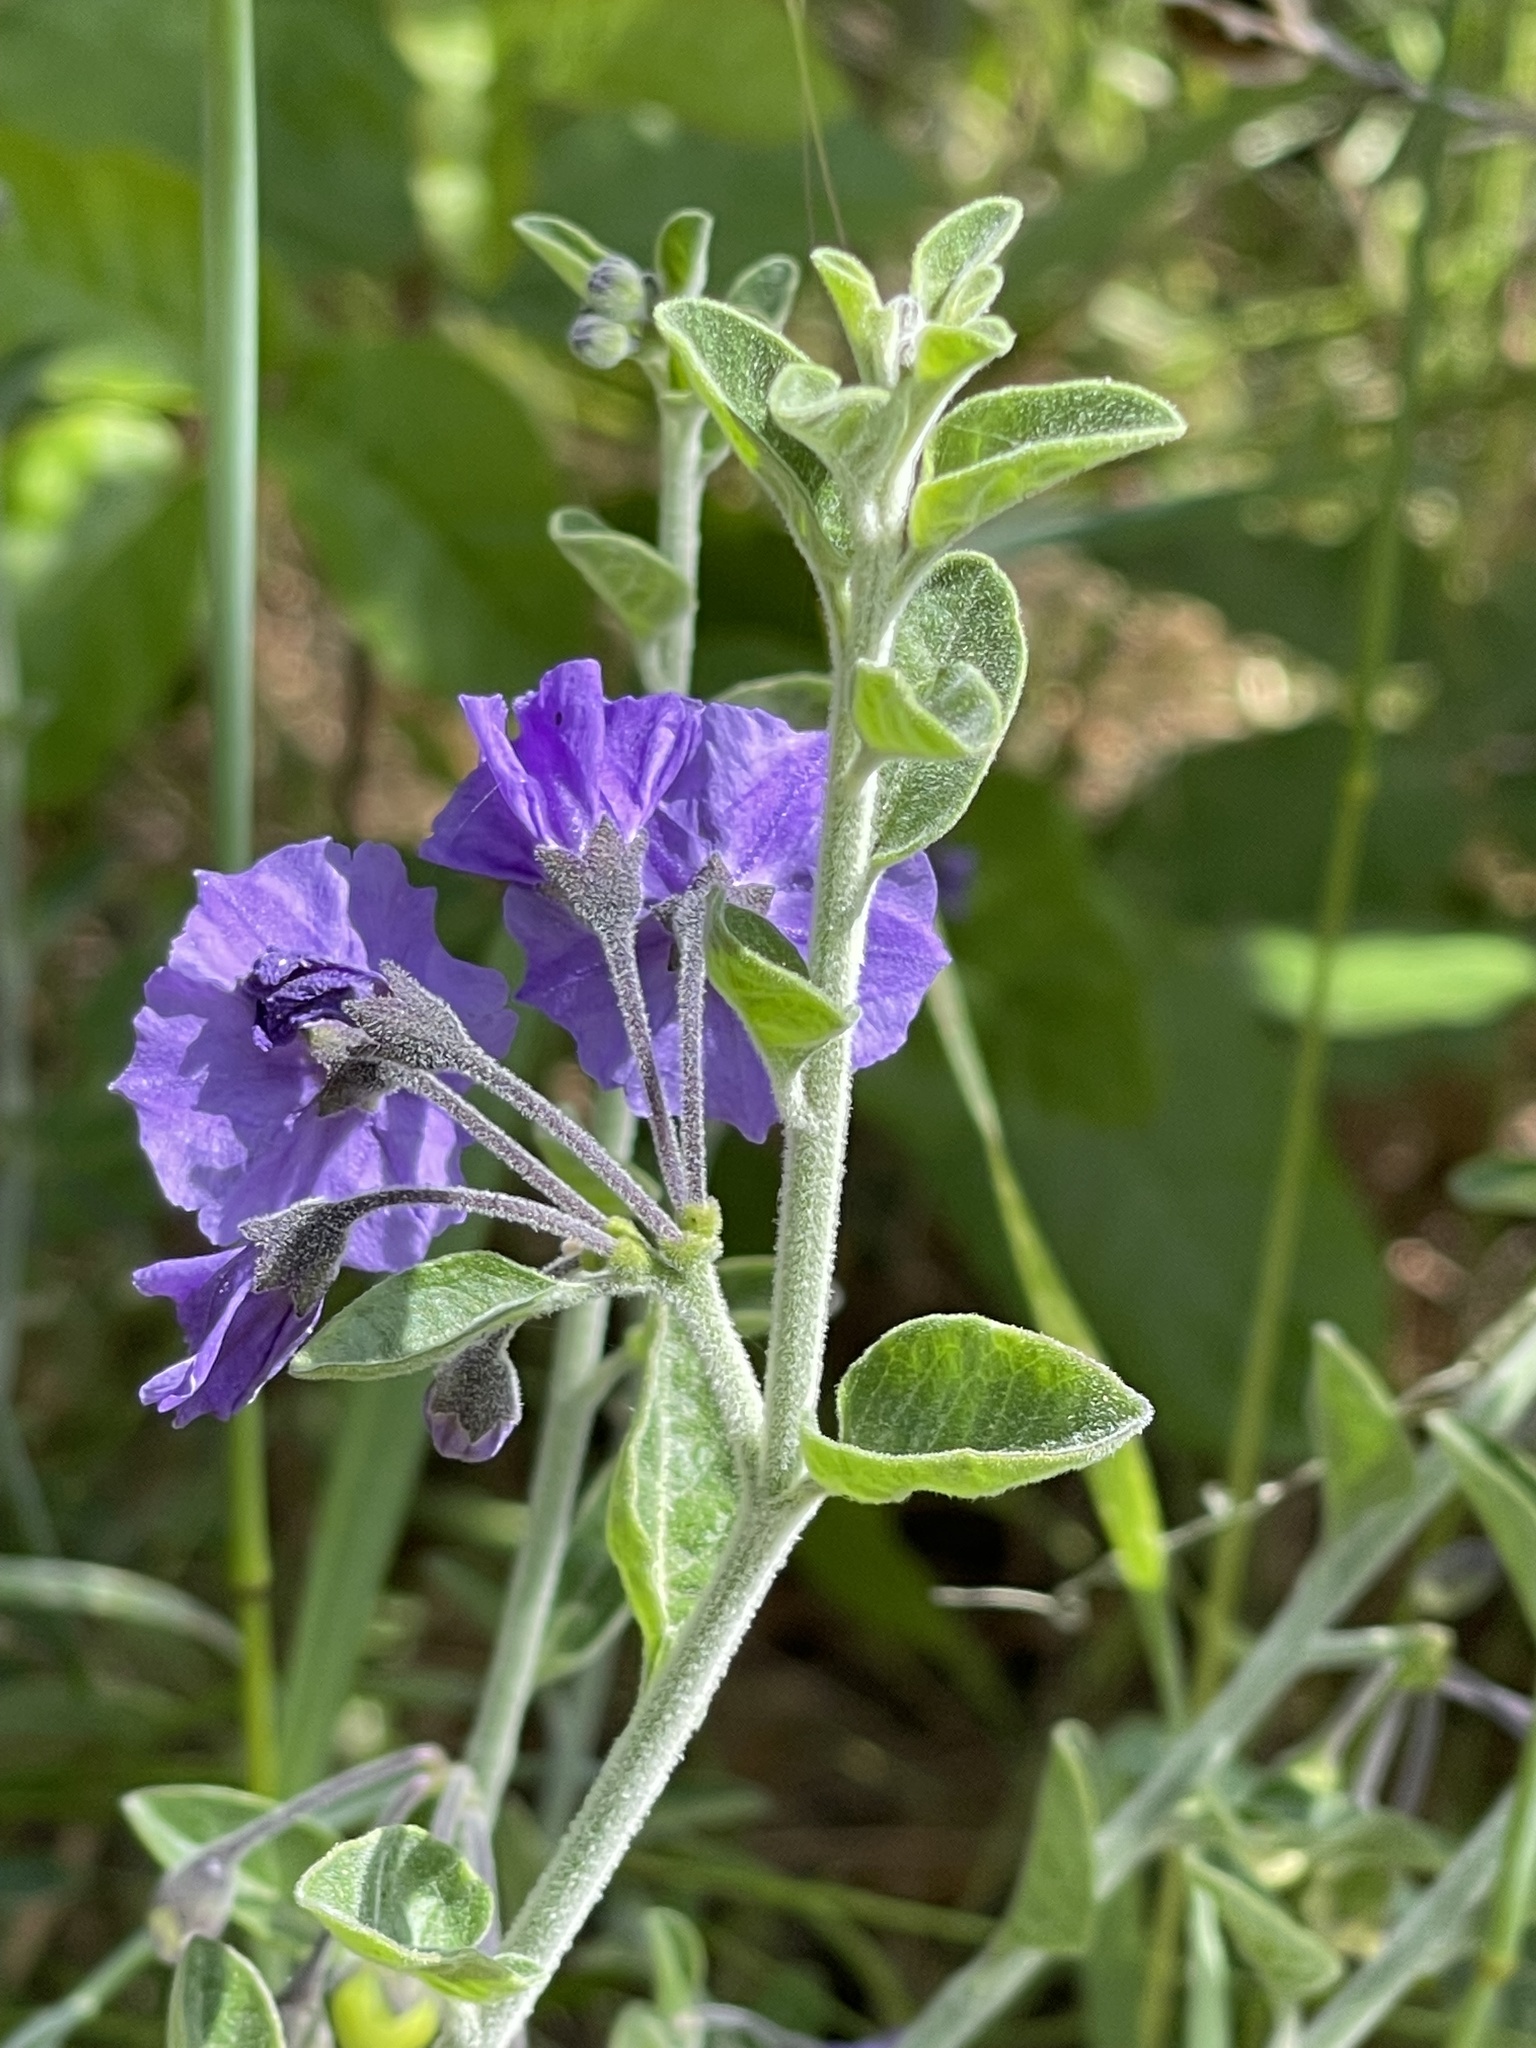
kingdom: Plantae
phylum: Tracheophyta
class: Magnoliopsida
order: Solanales
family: Solanaceae
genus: Solanum
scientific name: Solanum umbelliferum
